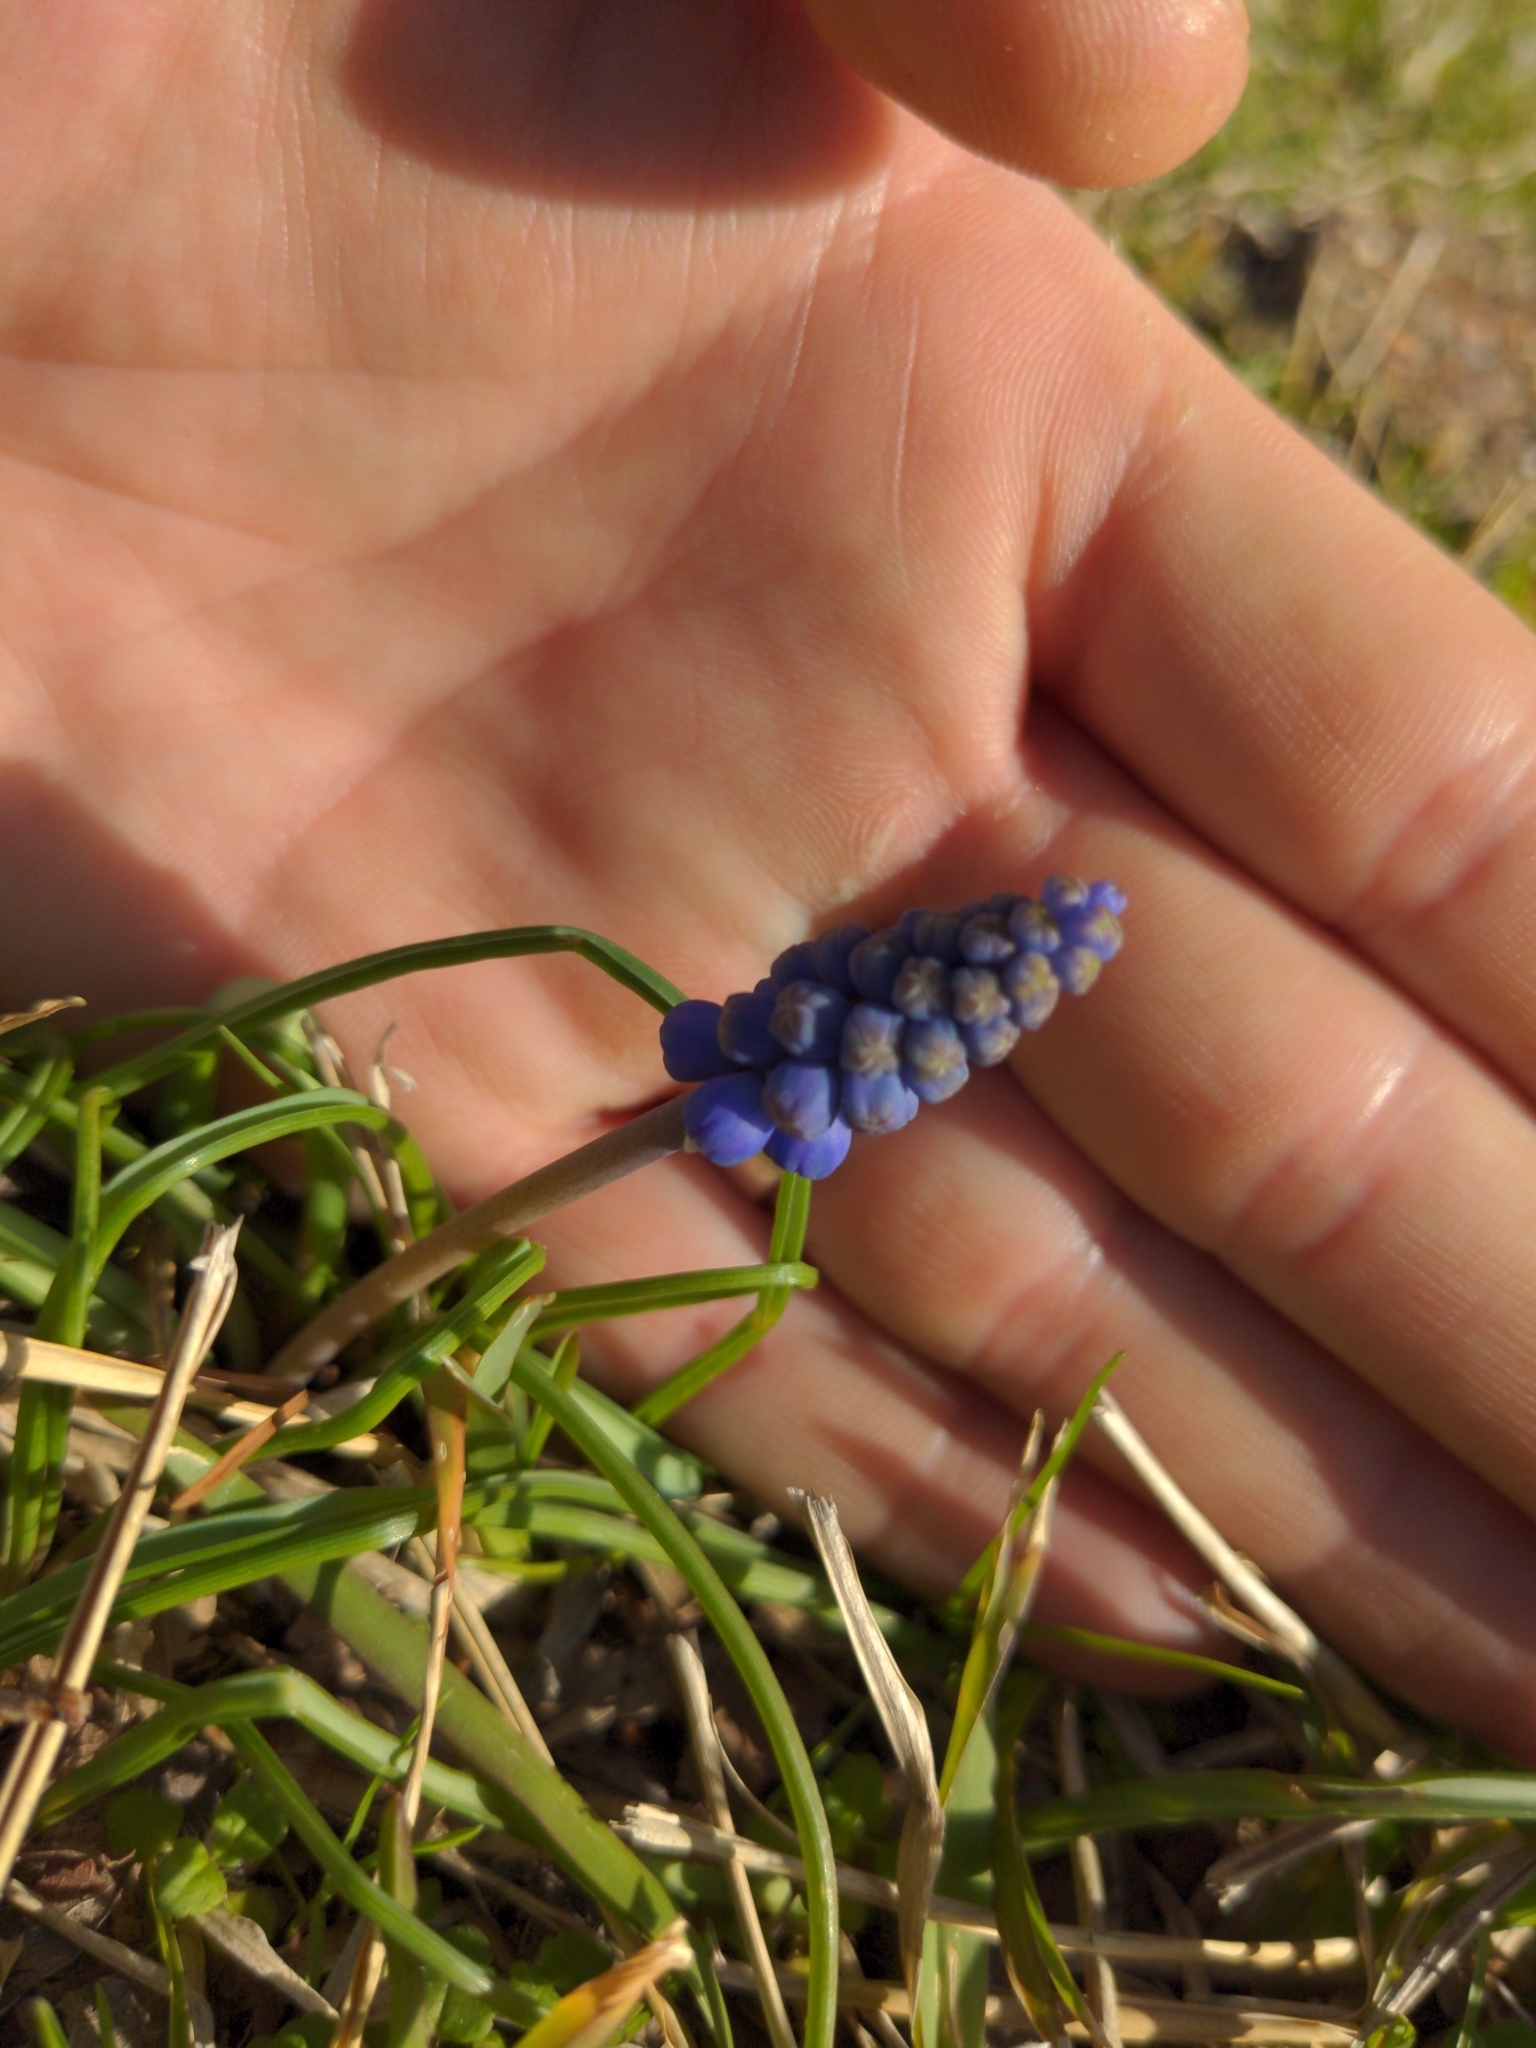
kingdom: Plantae
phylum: Tracheophyta
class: Liliopsida
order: Asparagales
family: Asparagaceae
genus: Muscari
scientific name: Muscari botryoides
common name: Compact grape-hyacinth
